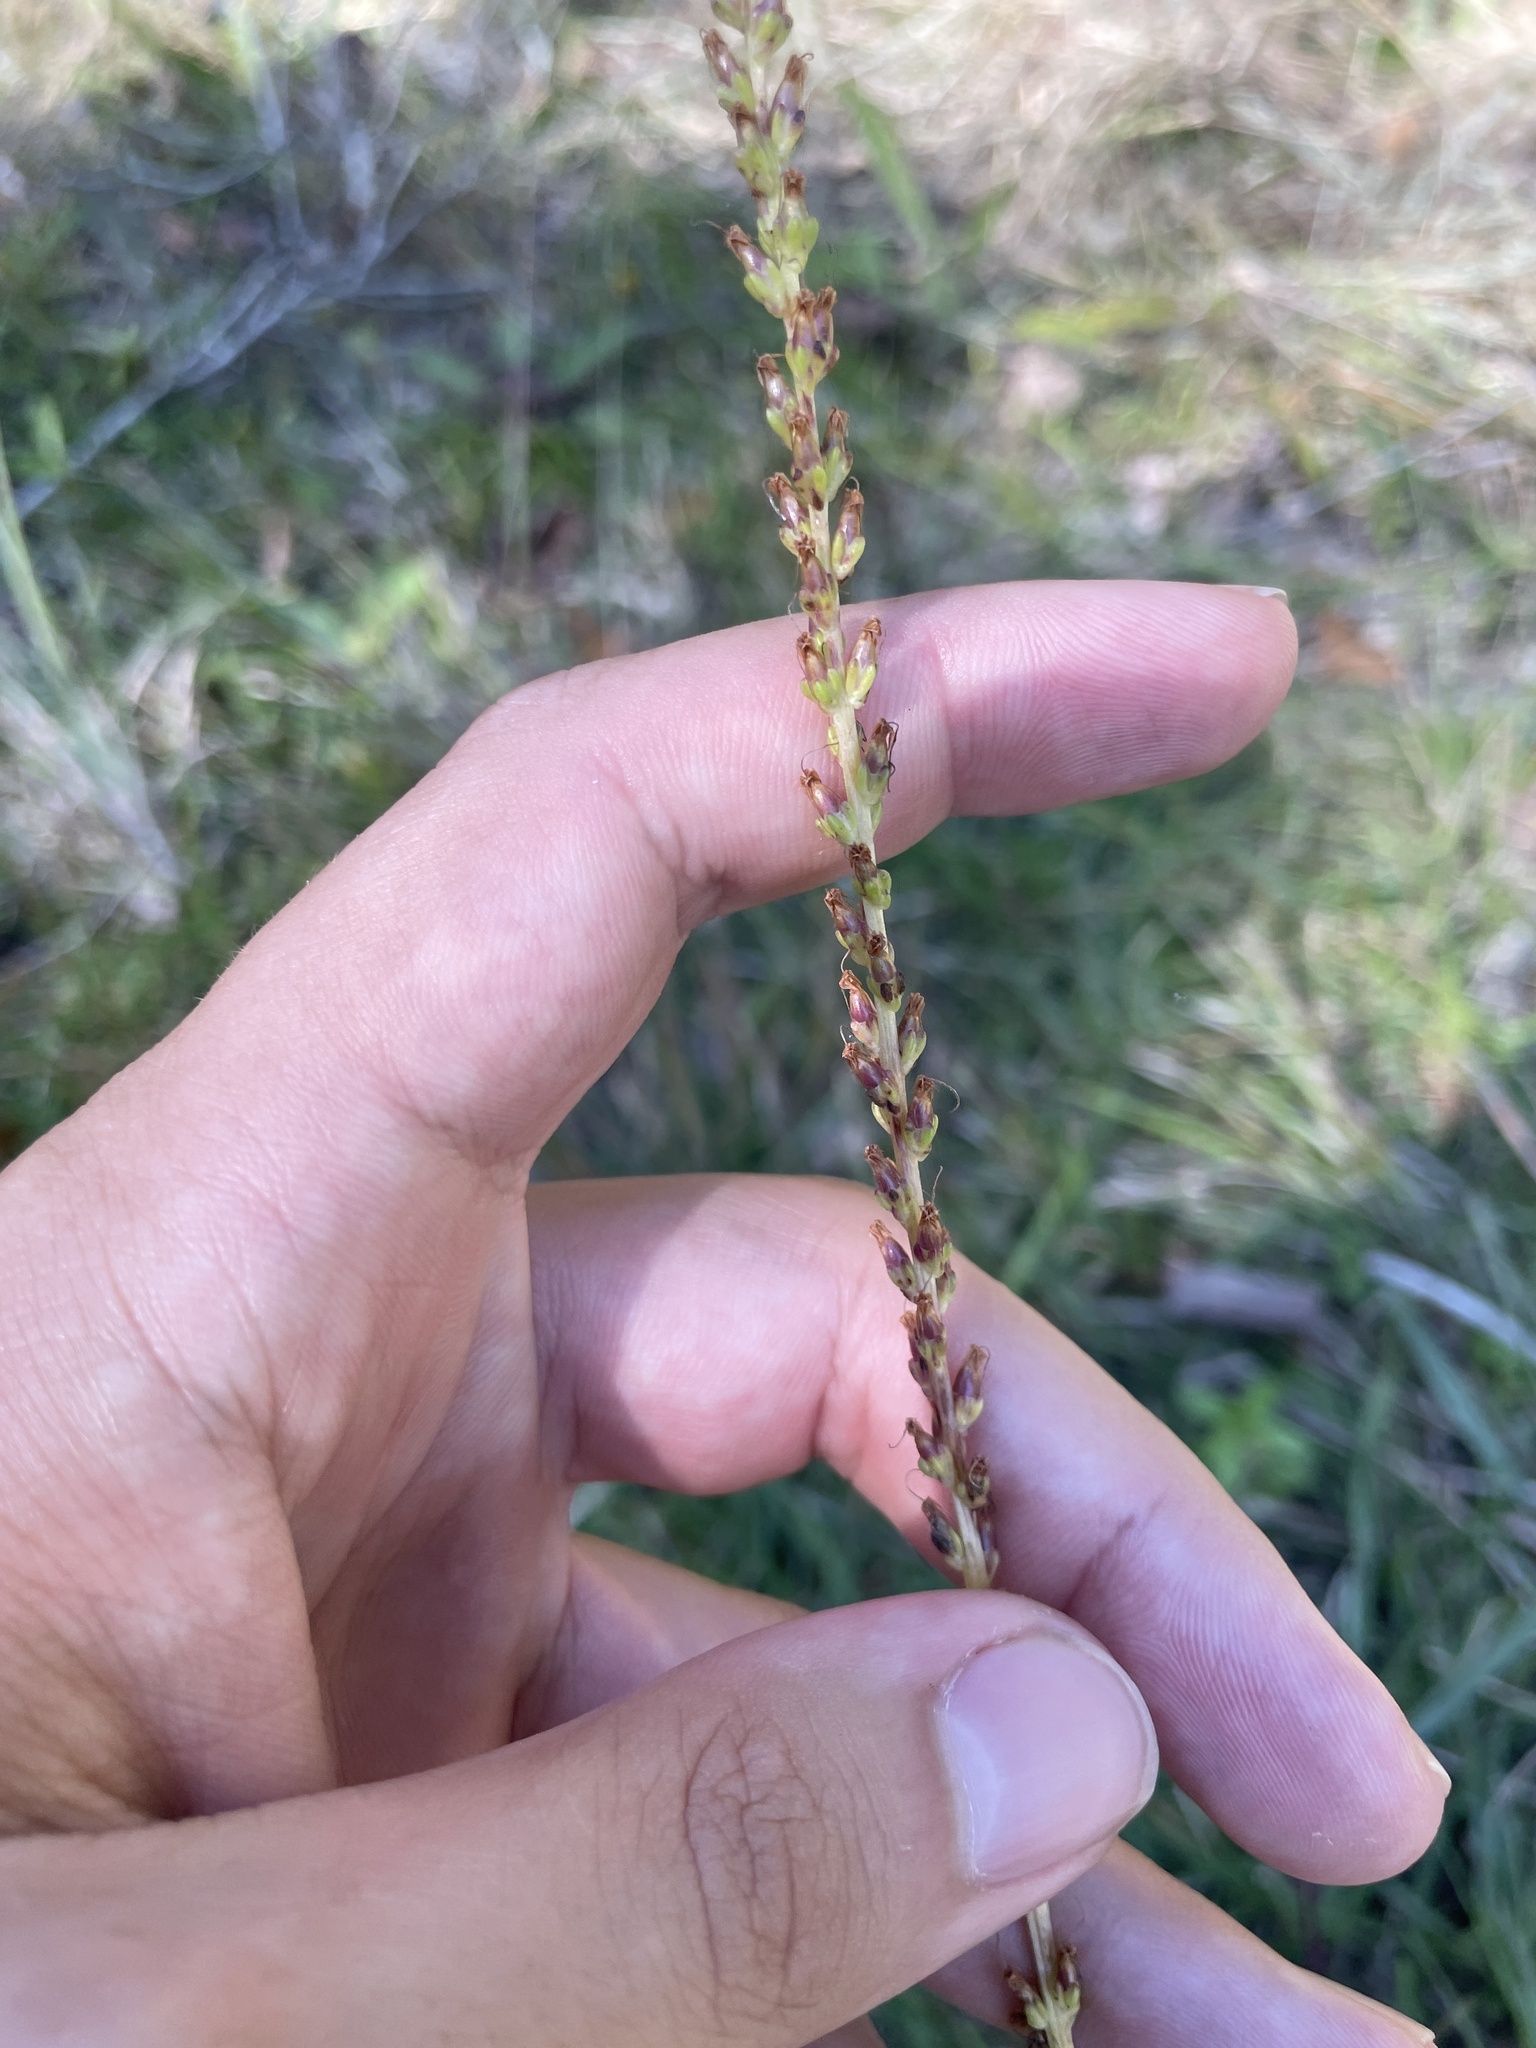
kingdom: Plantae
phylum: Tracheophyta
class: Magnoliopsida
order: Lamiales
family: Plantaginaceae
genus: Plantago
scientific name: Plantago sparsiflora
